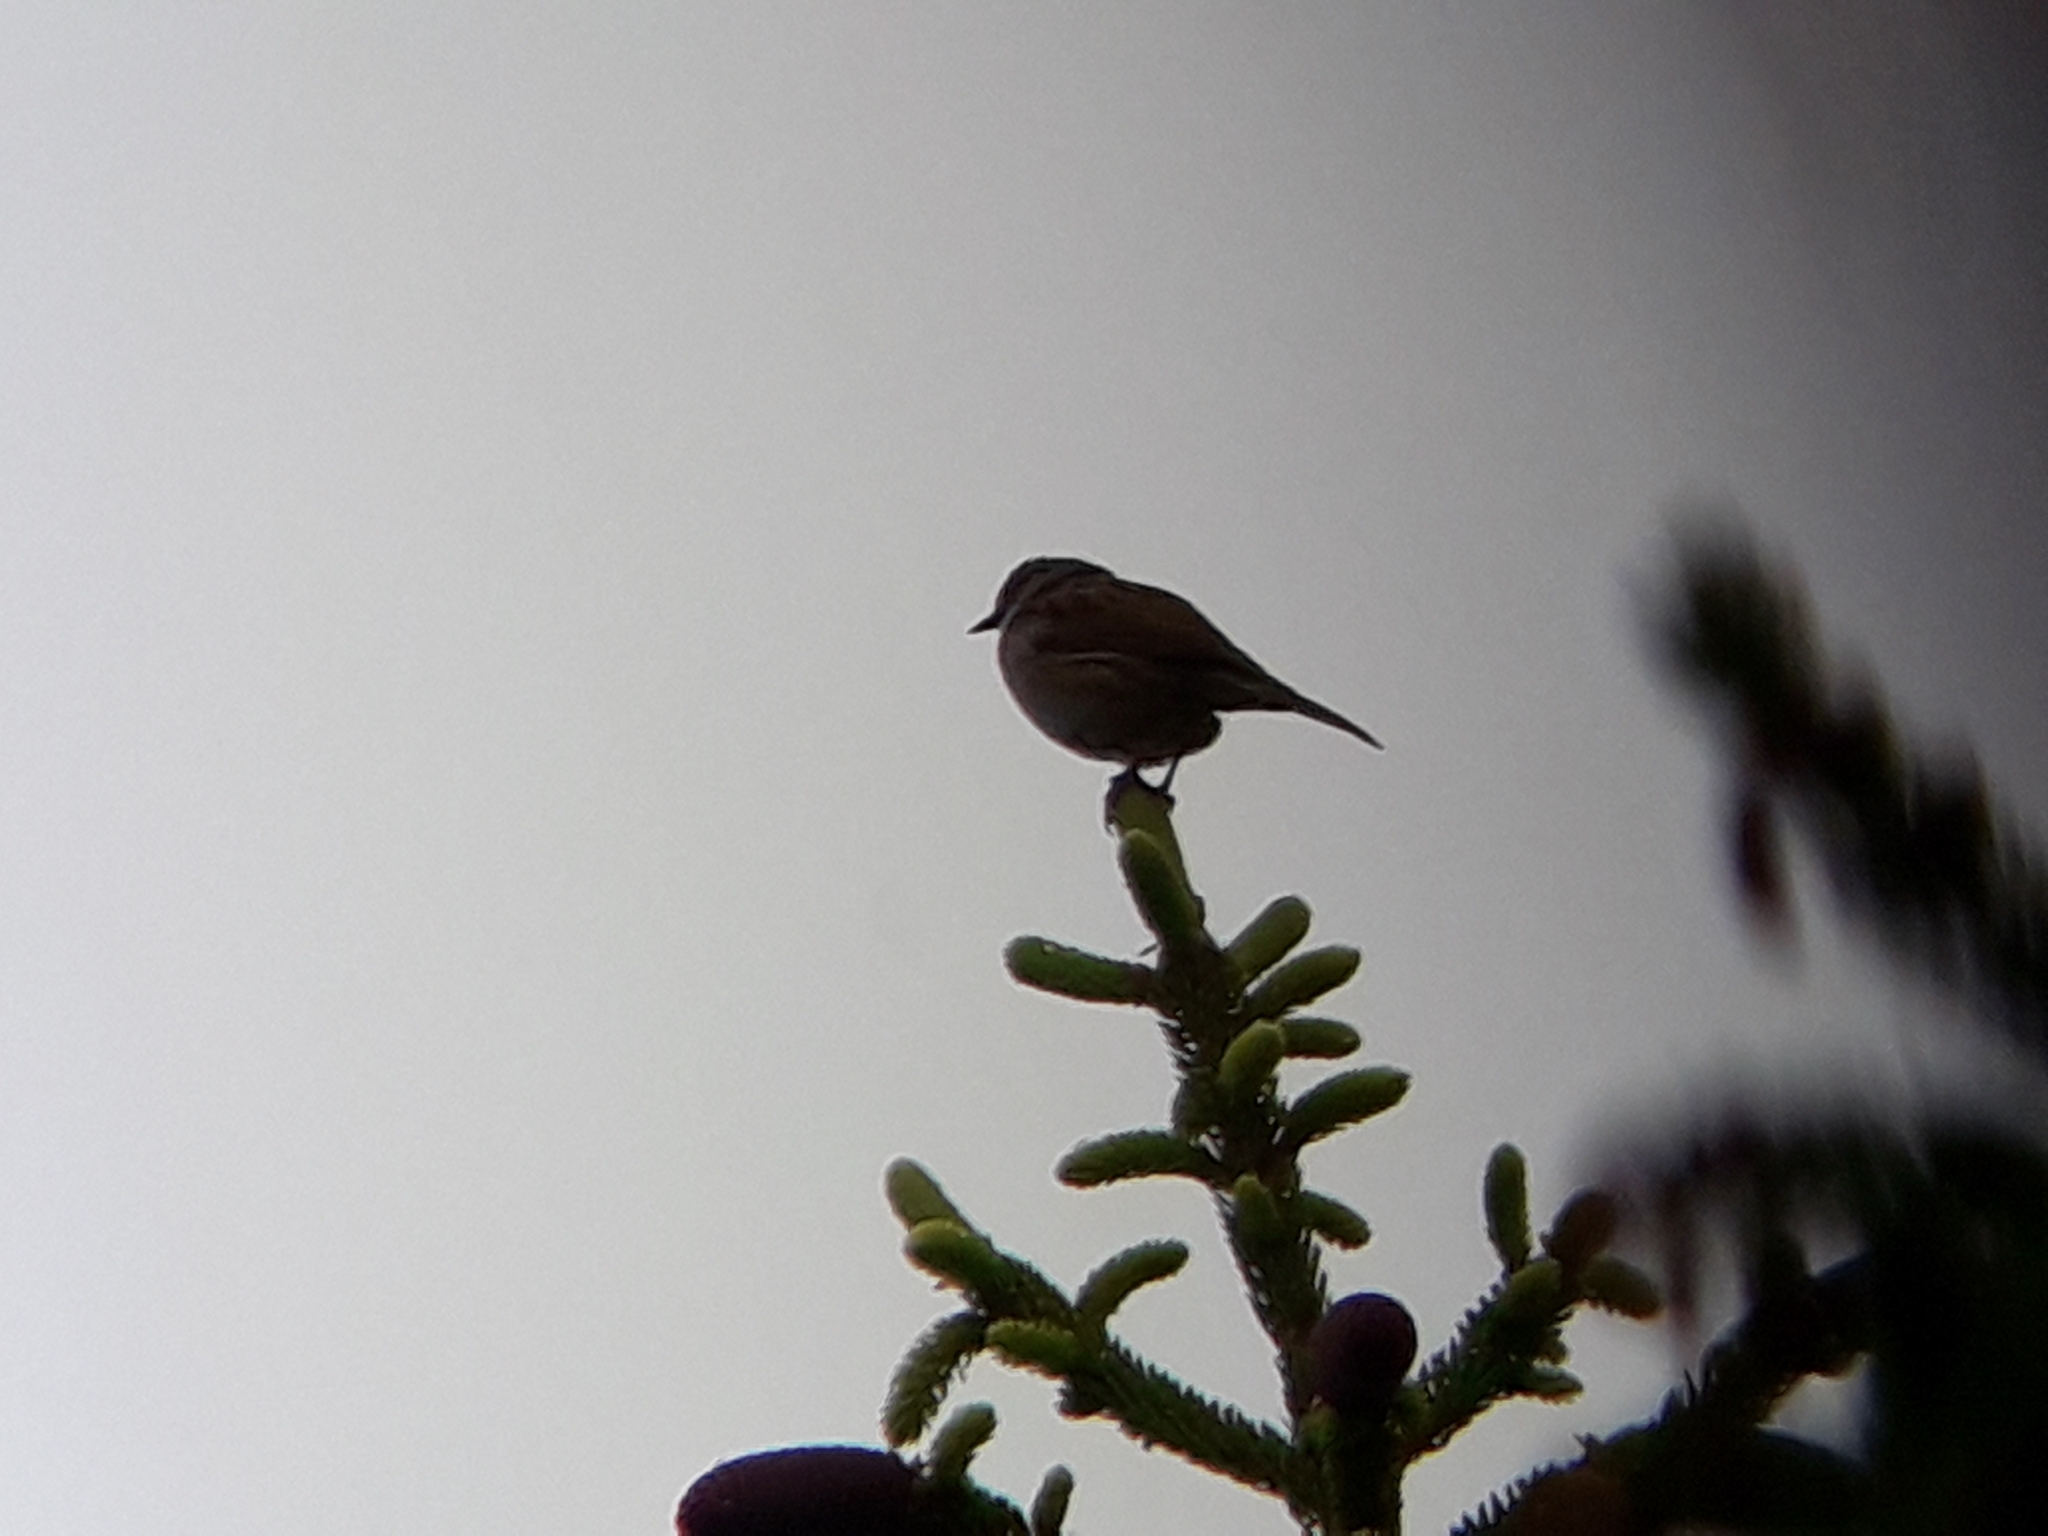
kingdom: Animalia
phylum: Chordata
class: Aves
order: Passeriformes
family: Prunellidae
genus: Prunella
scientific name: Prunella modularis
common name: Dunnock
